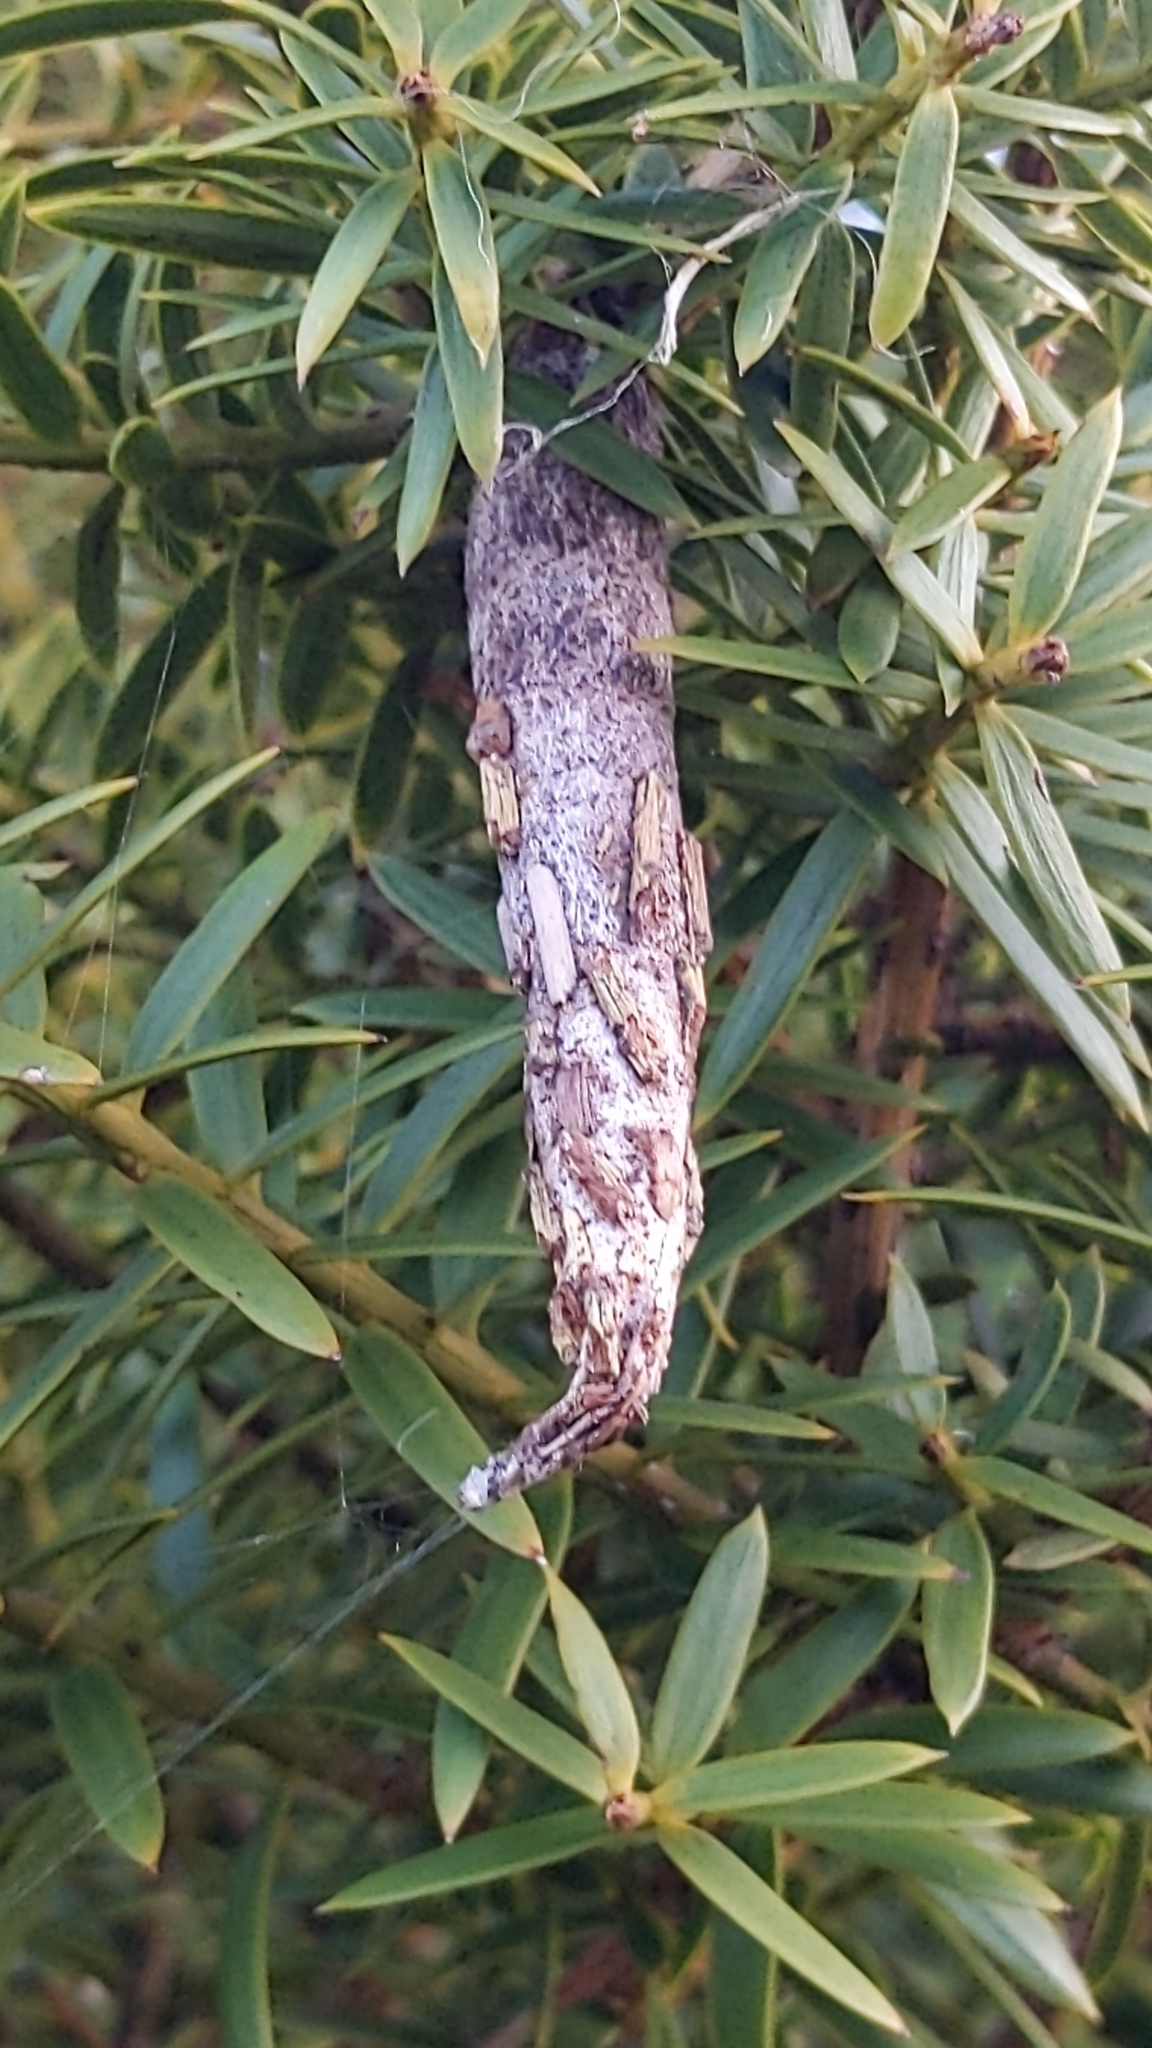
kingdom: Animalia
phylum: Arthropoda
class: Insecta
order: Lepidoptera
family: Psychidae
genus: Liothula
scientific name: Liothula omnivora
